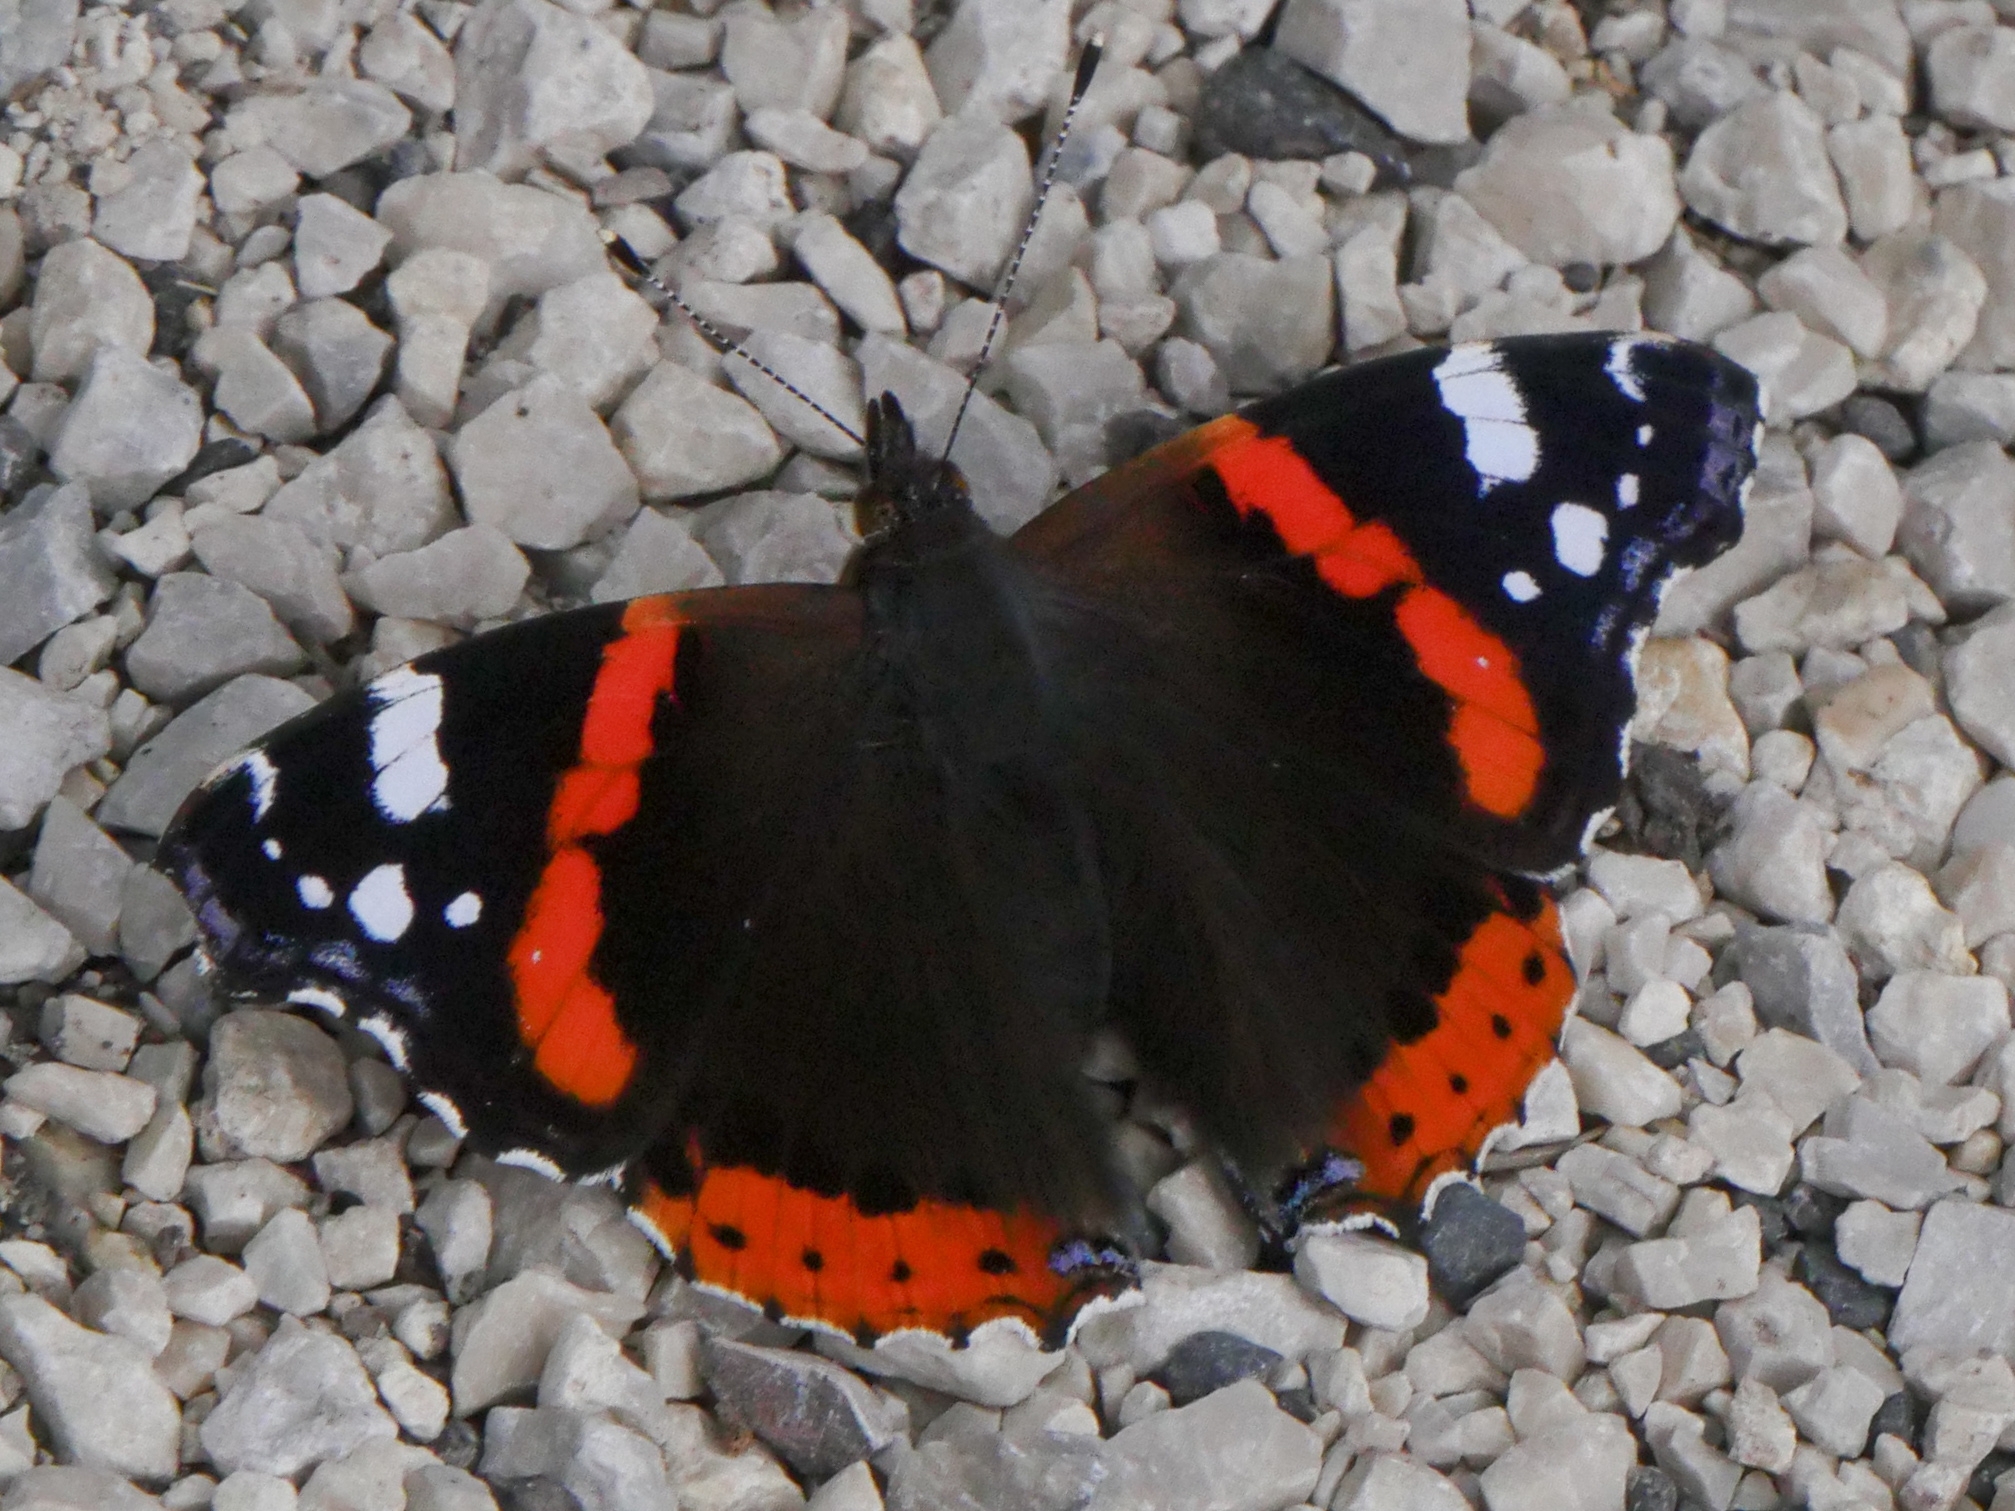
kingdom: Animalia
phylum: Arthropoda
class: Insecta
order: Lepidoptera
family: Nymphalidae
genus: Vanessa
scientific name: Vanessa atalanta
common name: Red admiral
